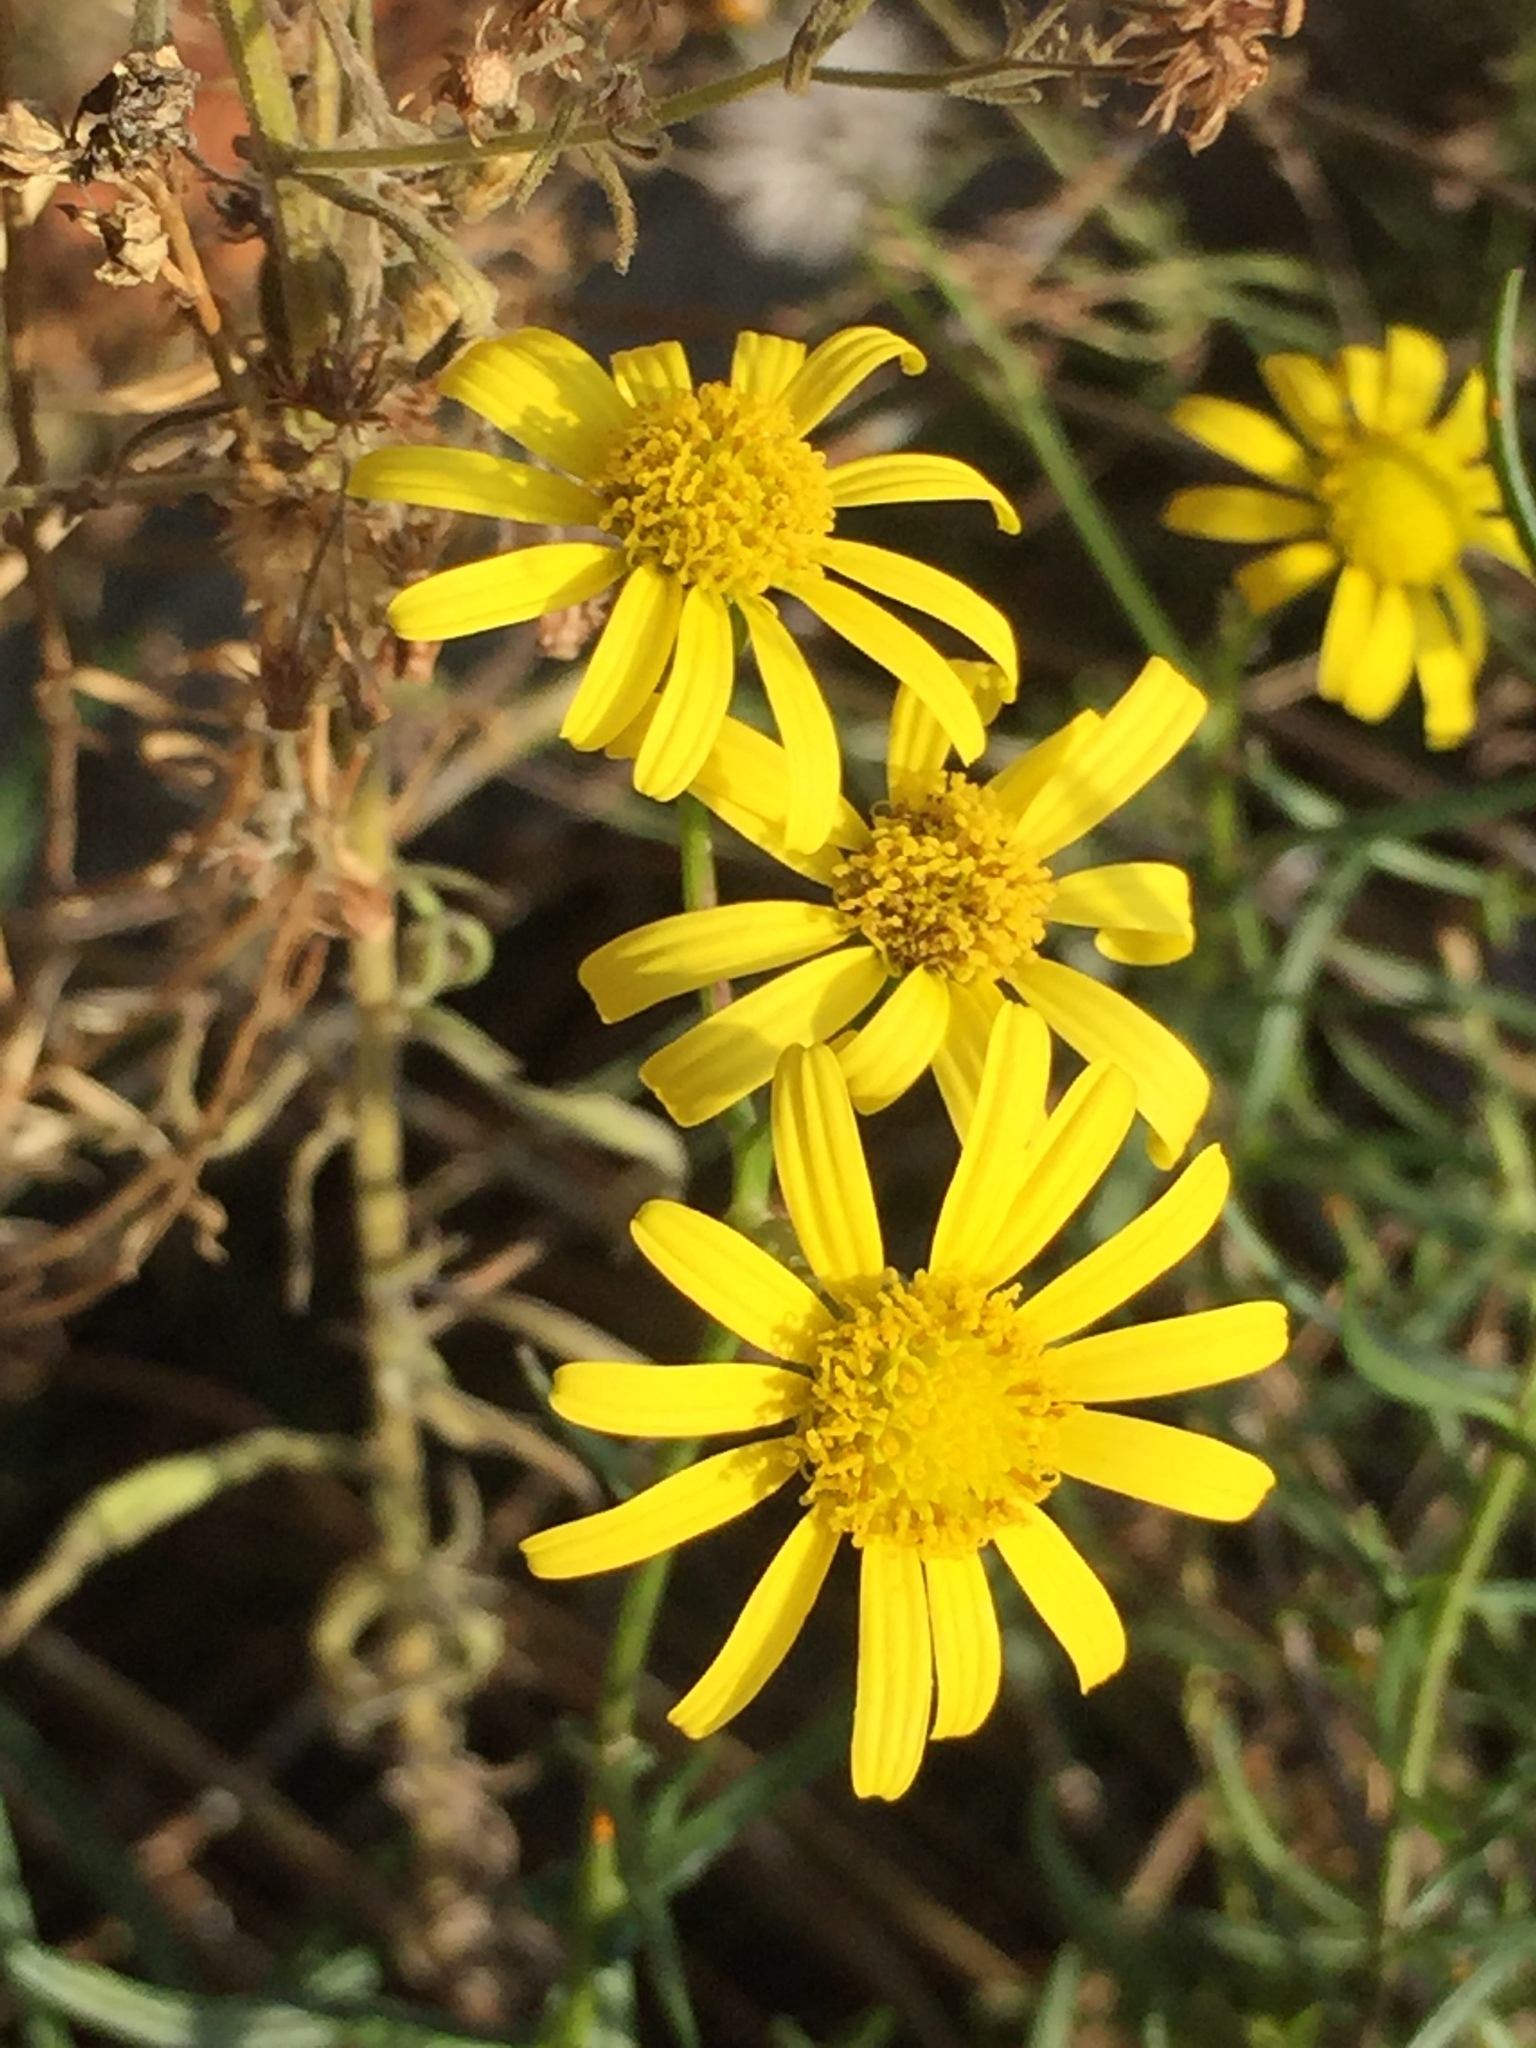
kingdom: Plantae
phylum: Tracheophyta
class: Magnoliopsida
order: Asterales
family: Asteraceae
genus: Senecio
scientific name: Senecio inaequidens
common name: Narrow-leaved ragwort
